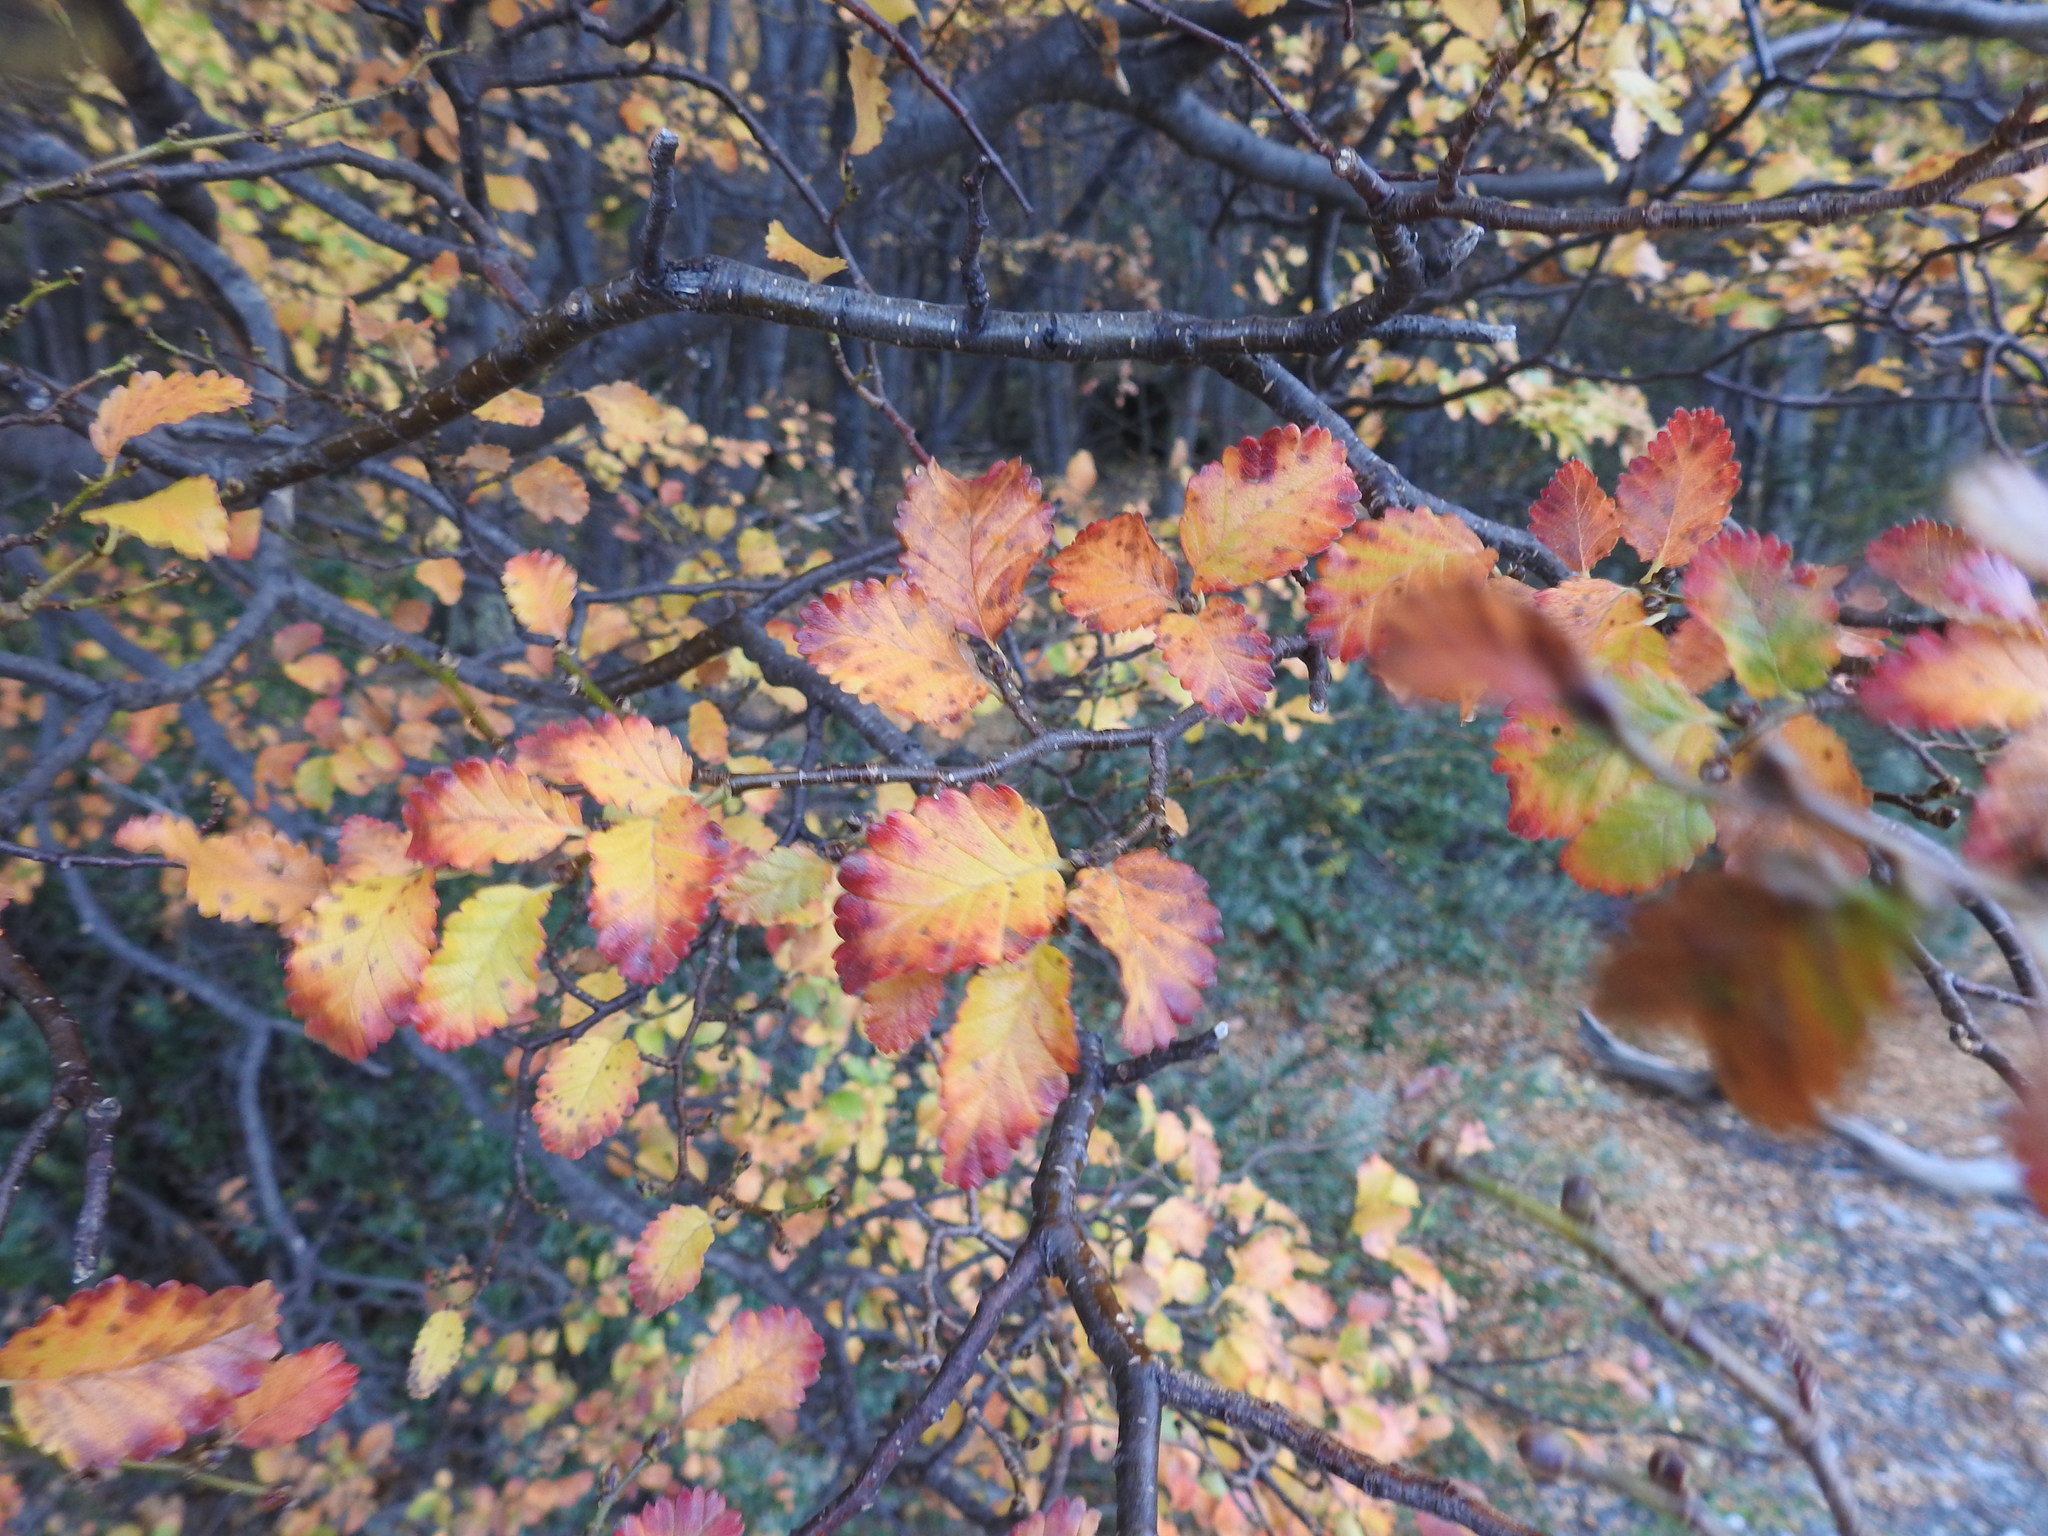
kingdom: Plantae
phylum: Tracheophyta
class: Magnoliopsida
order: Fagales
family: Nothofagaceae
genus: Nothofagus
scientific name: Nothofagus pumilio
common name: Lenga beech
